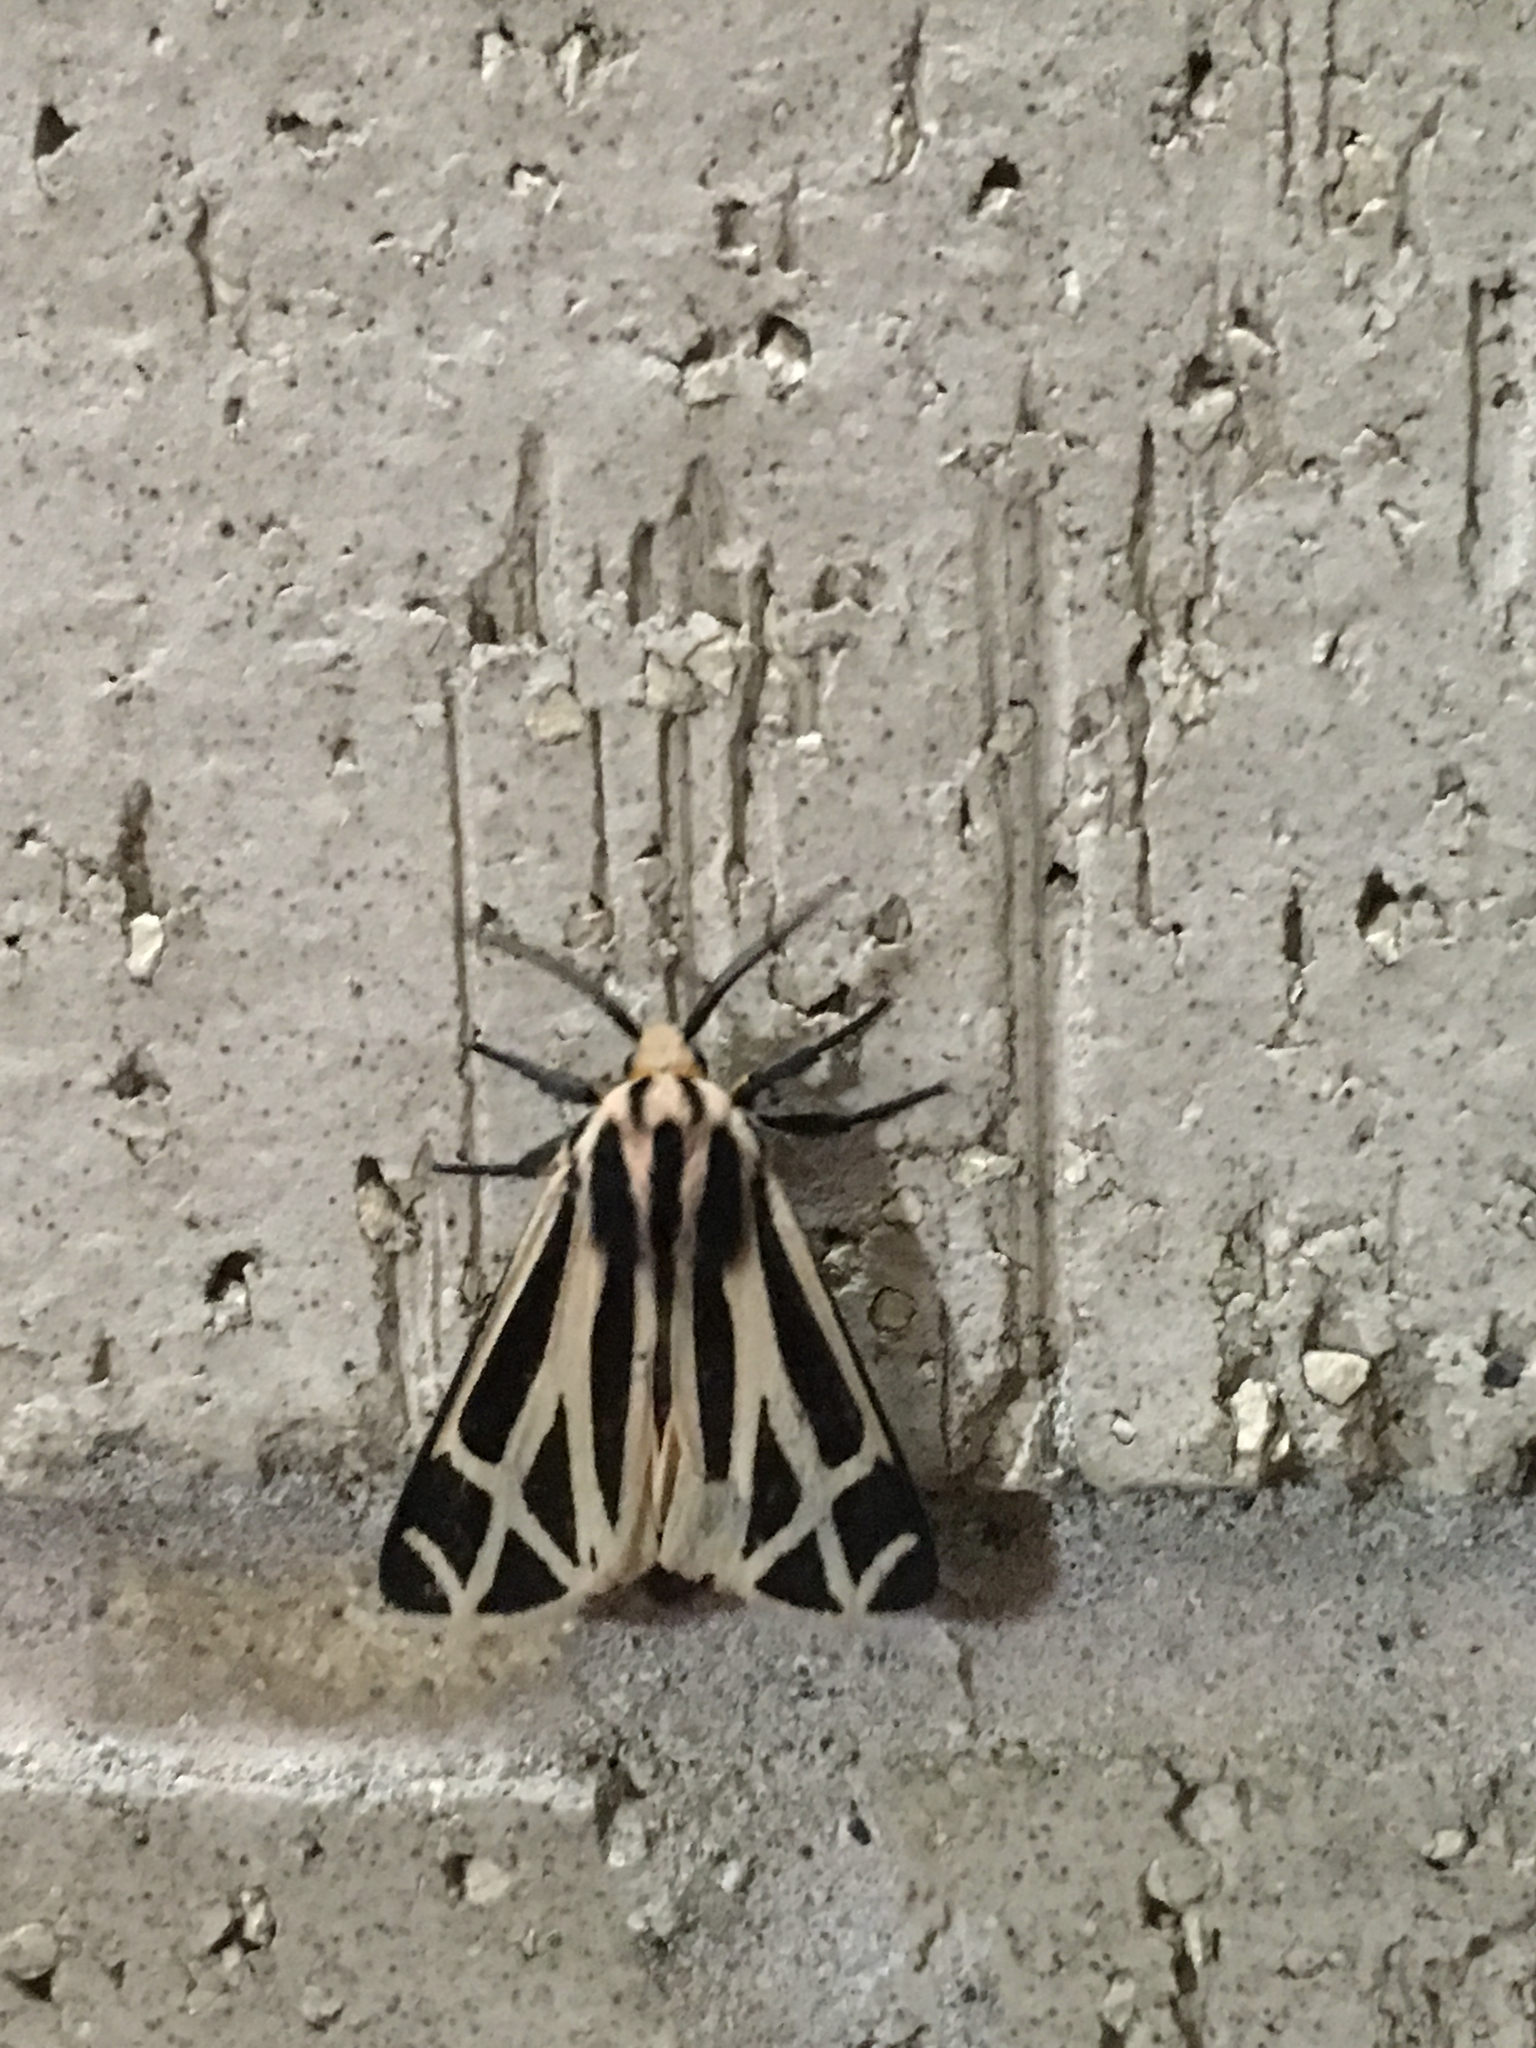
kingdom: Animalia
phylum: Arthropoda
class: Insecta
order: Lepidoptera
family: Erebidae
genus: Apantesis
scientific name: Apantesis phalerata
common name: Harnessed tiger moth
